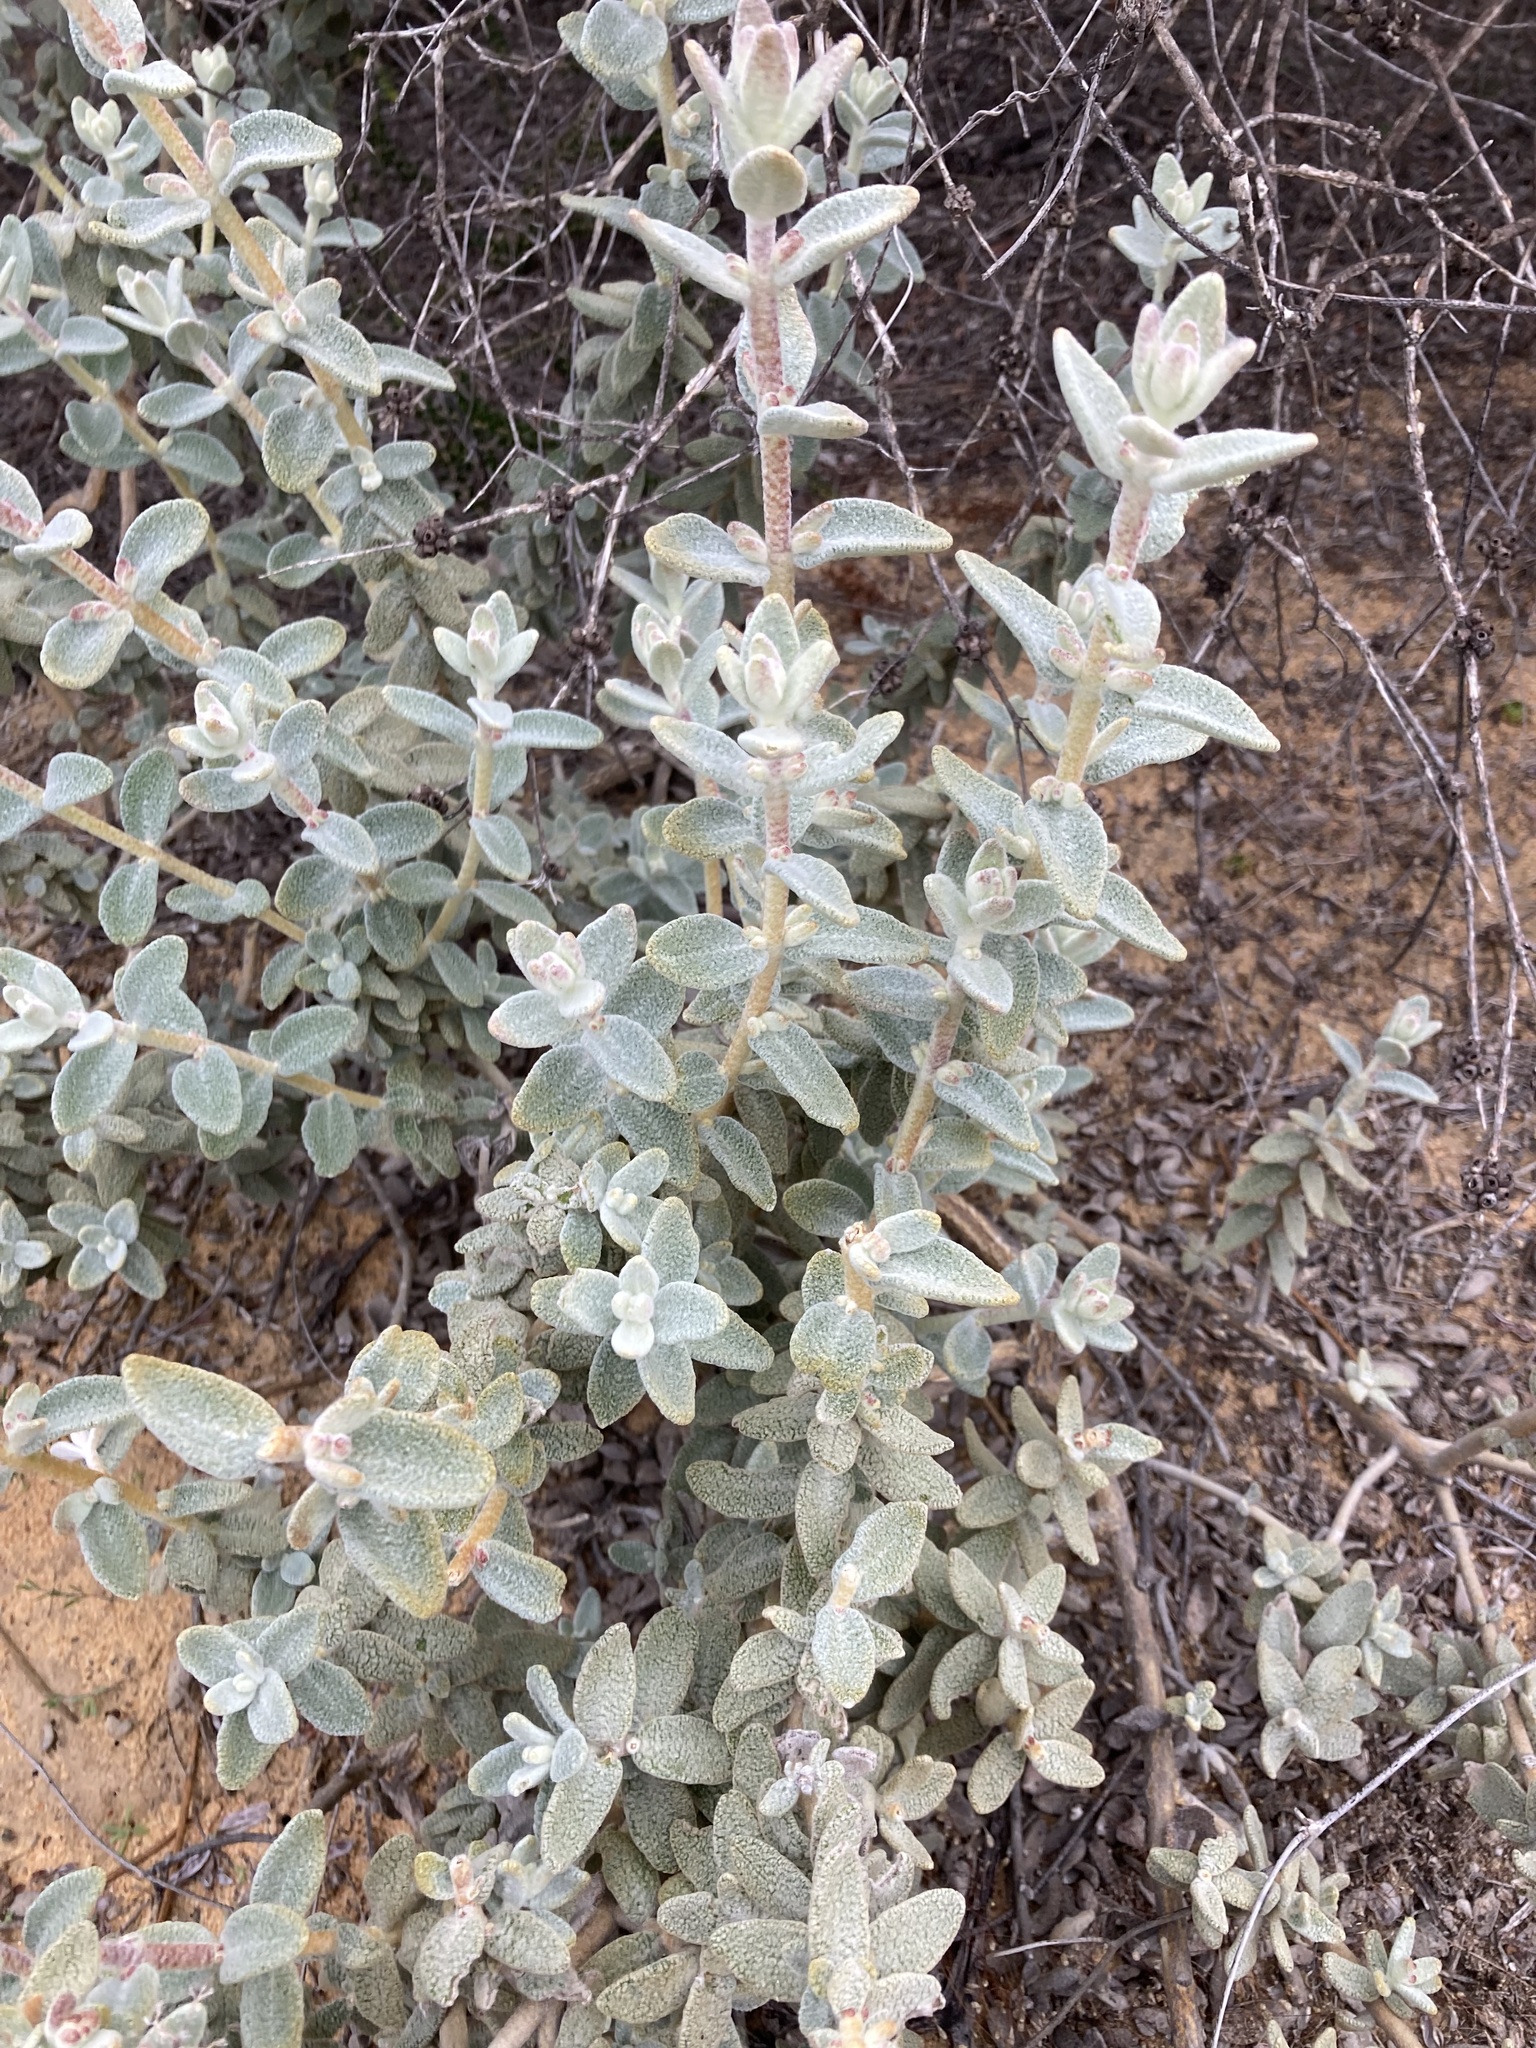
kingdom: Plantae
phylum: Tracheophyta
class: Magnoliopsida
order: Lamiales
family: Lamiaceae
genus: Dicrastylis
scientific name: Dicrastylis fulva
